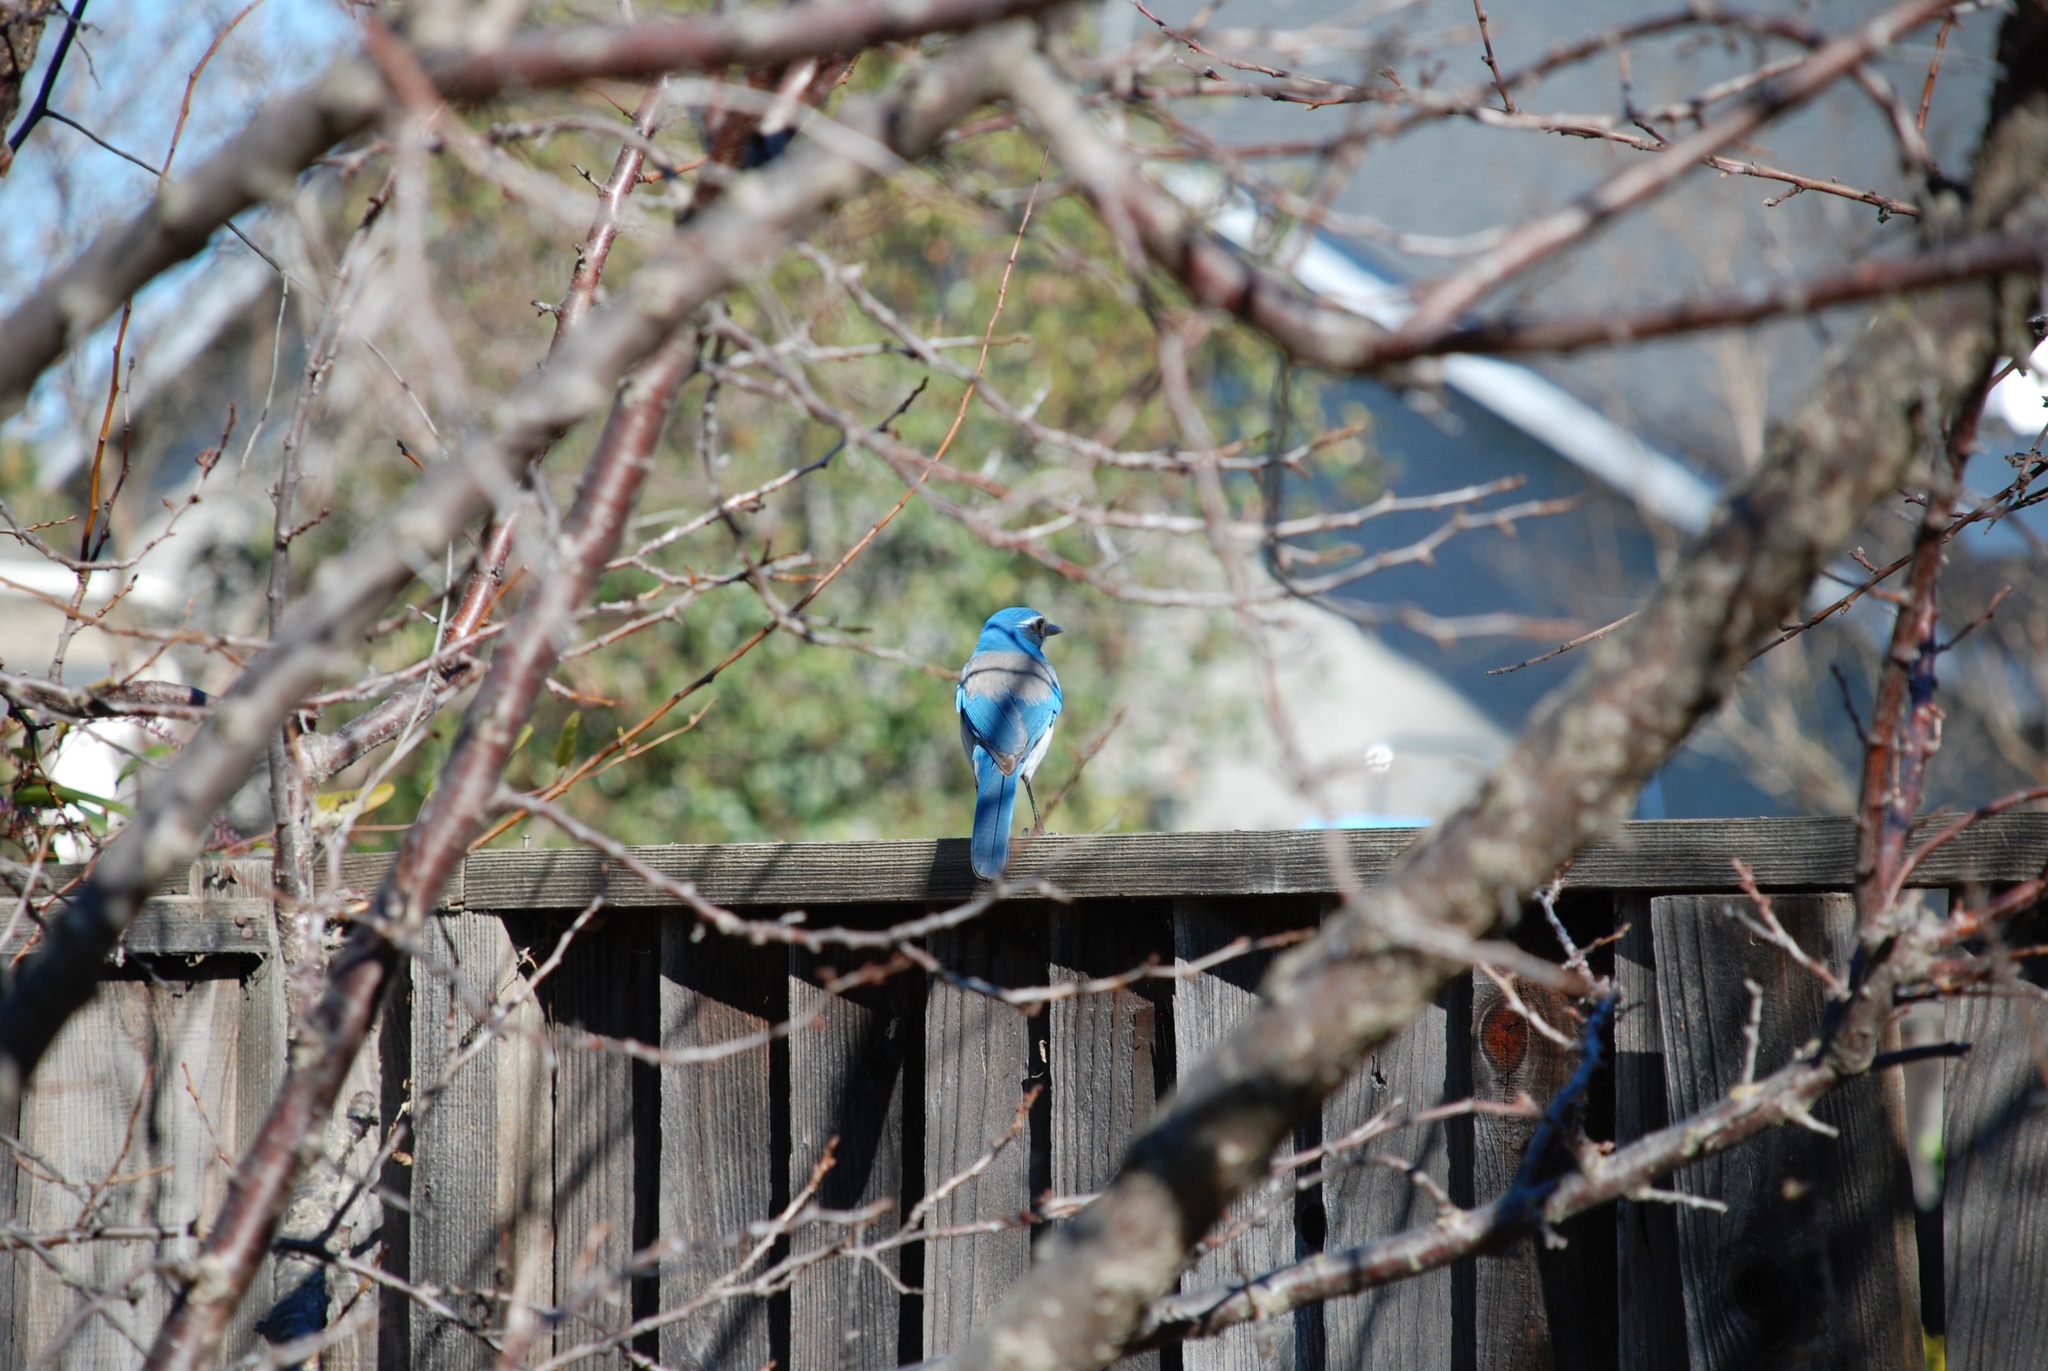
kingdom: Animalia
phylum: Chordata
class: Aves
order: Passeriformes
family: Corvidae
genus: Aphelocoma
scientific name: Aphelocoma californica
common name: California scrub-jay
